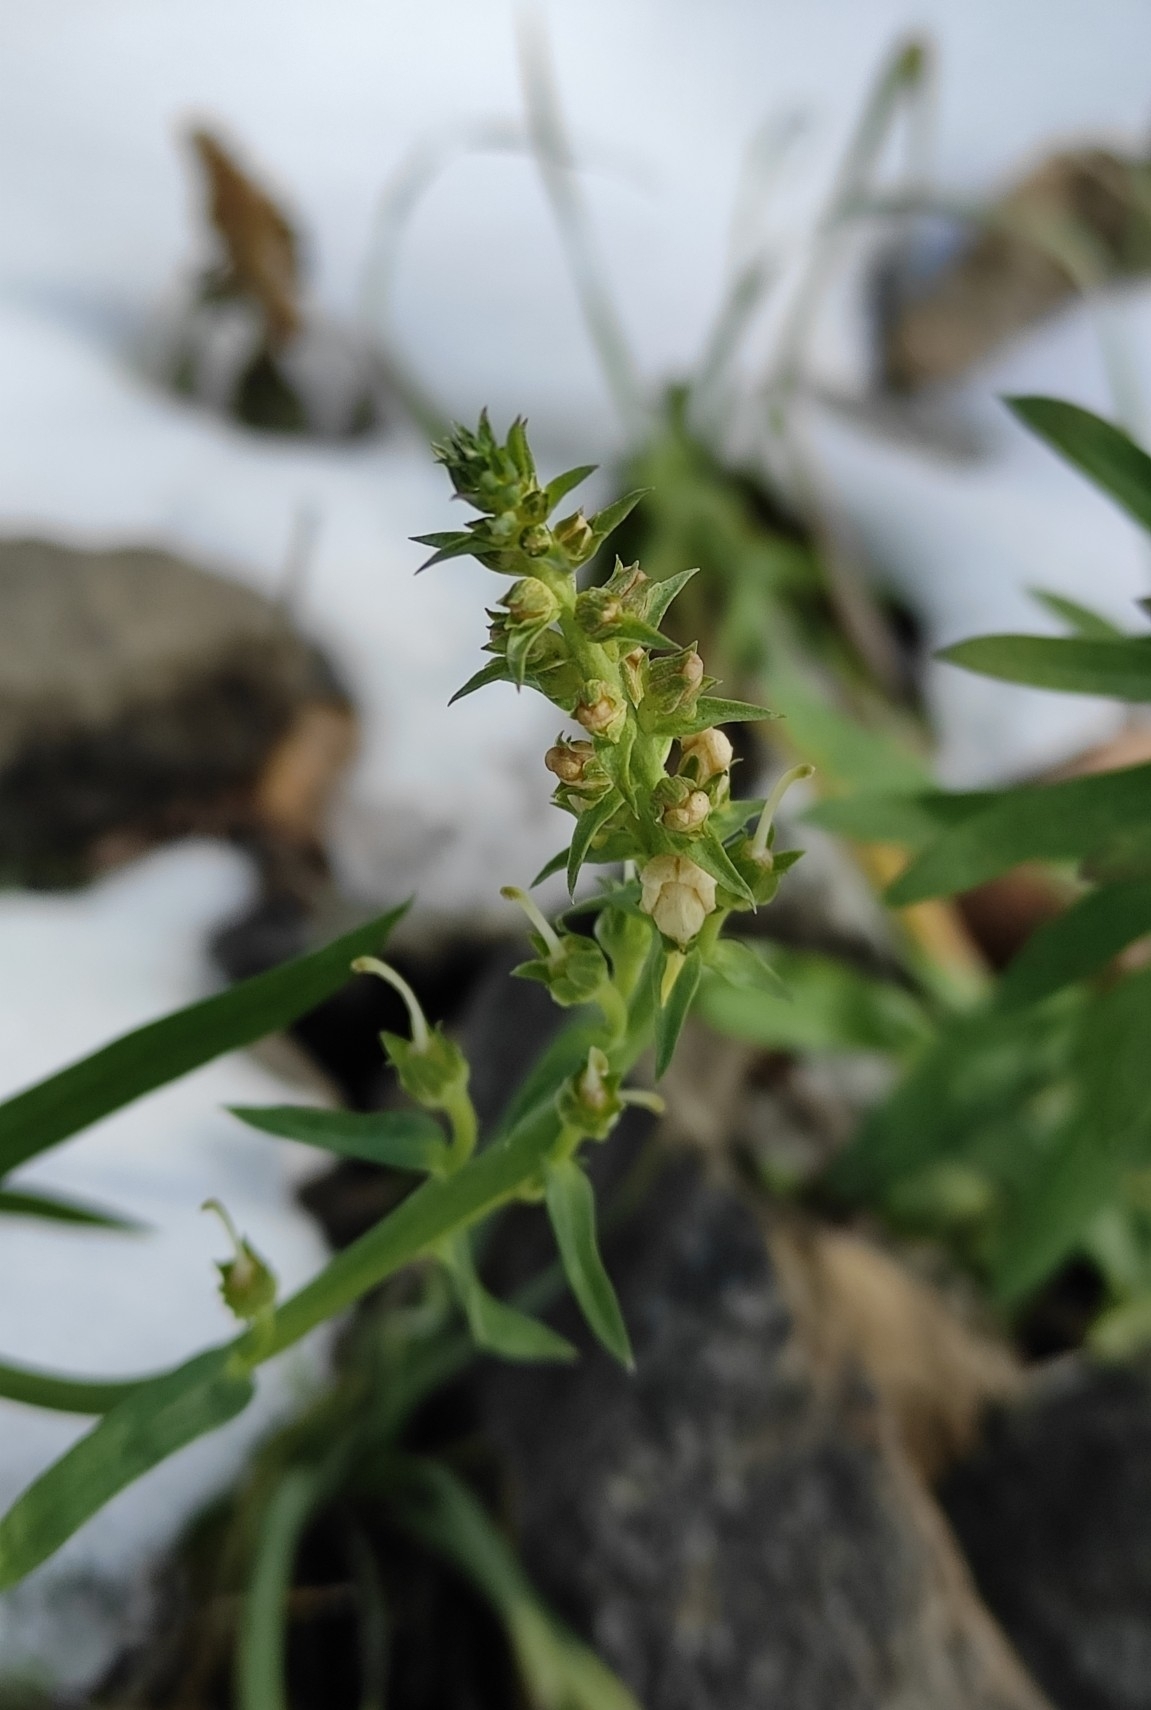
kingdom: Plantae
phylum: Tracheophyta
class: Magnoliopsida
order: Lamiales
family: Plantaginaceae
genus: Linaria
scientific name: Linaria vulgaris
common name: Butter and eggs
